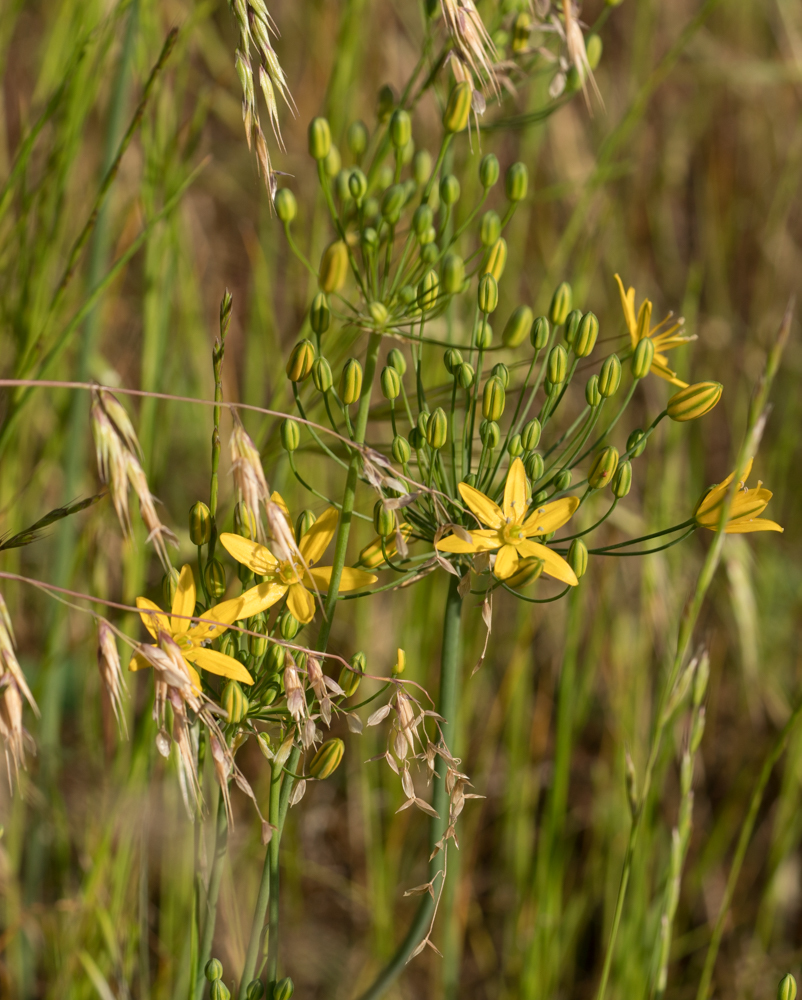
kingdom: Plantae
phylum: Tracheophyta
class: Liliopsida
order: Asparagales
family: Asparagaceae
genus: Bloomeria
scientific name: Bloomeria crocea
